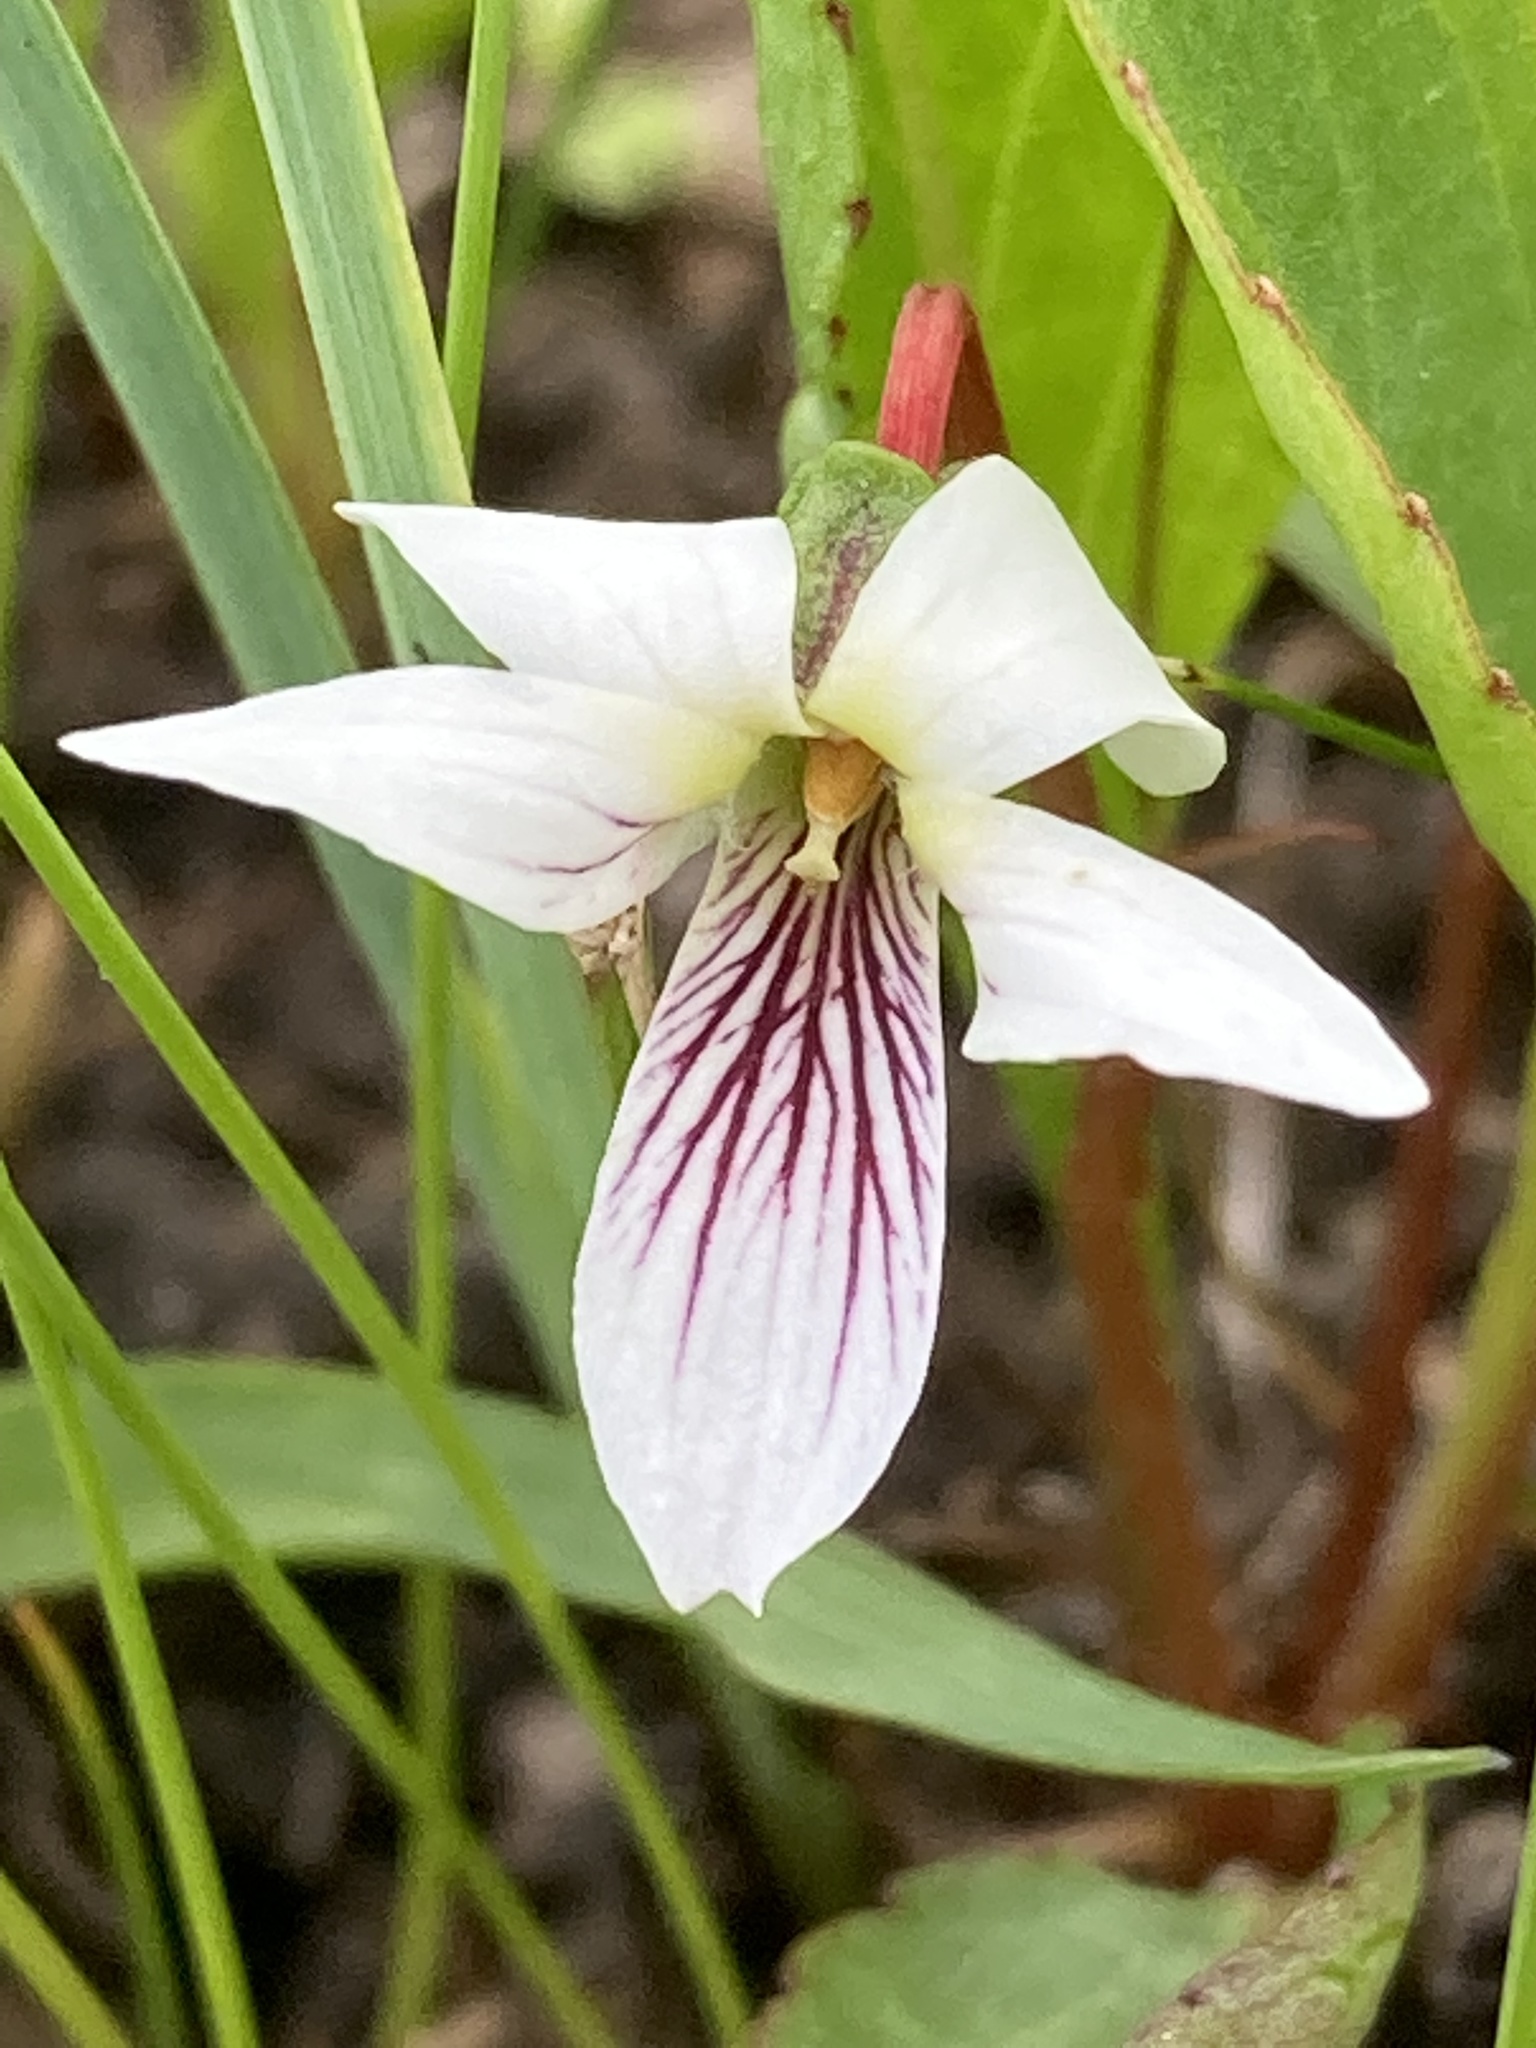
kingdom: Plantae
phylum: Tracheophyta
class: Magnoliopsida
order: Malpighiales
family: Violaceae
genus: Viola
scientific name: Viola lanceolata
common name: Bog white violet
